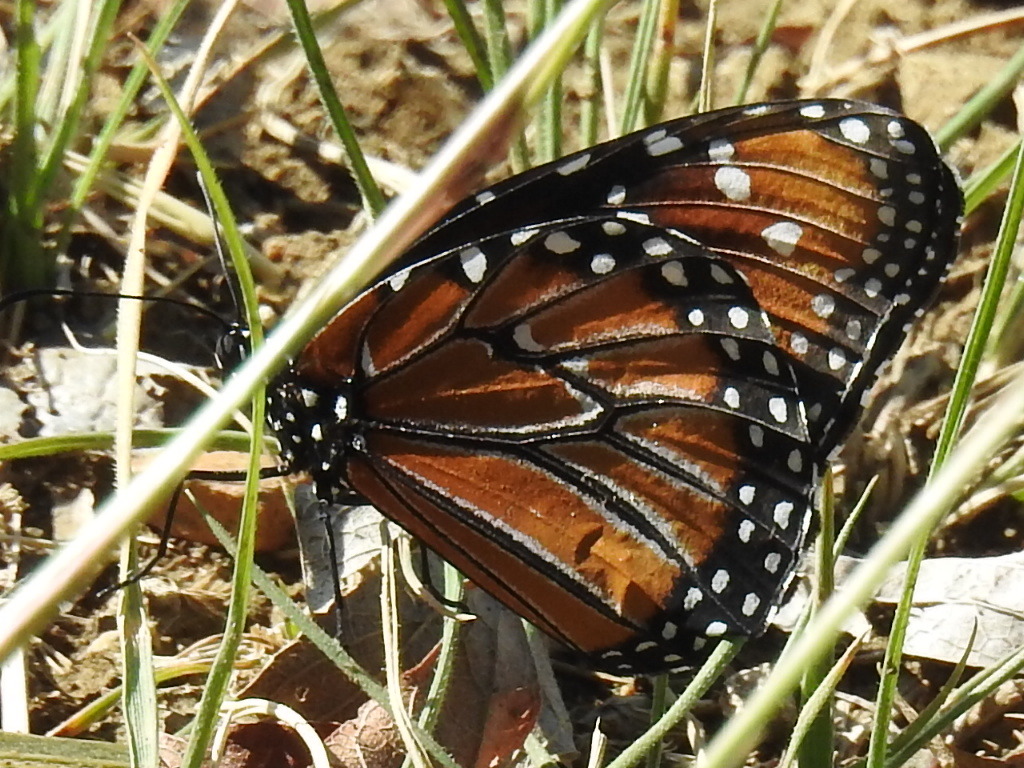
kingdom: Animalia
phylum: Arthropoda
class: Insecta
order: Lepidoptera
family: Nymphalidae
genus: Danaus
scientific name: Danaus gilippus
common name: Queen
